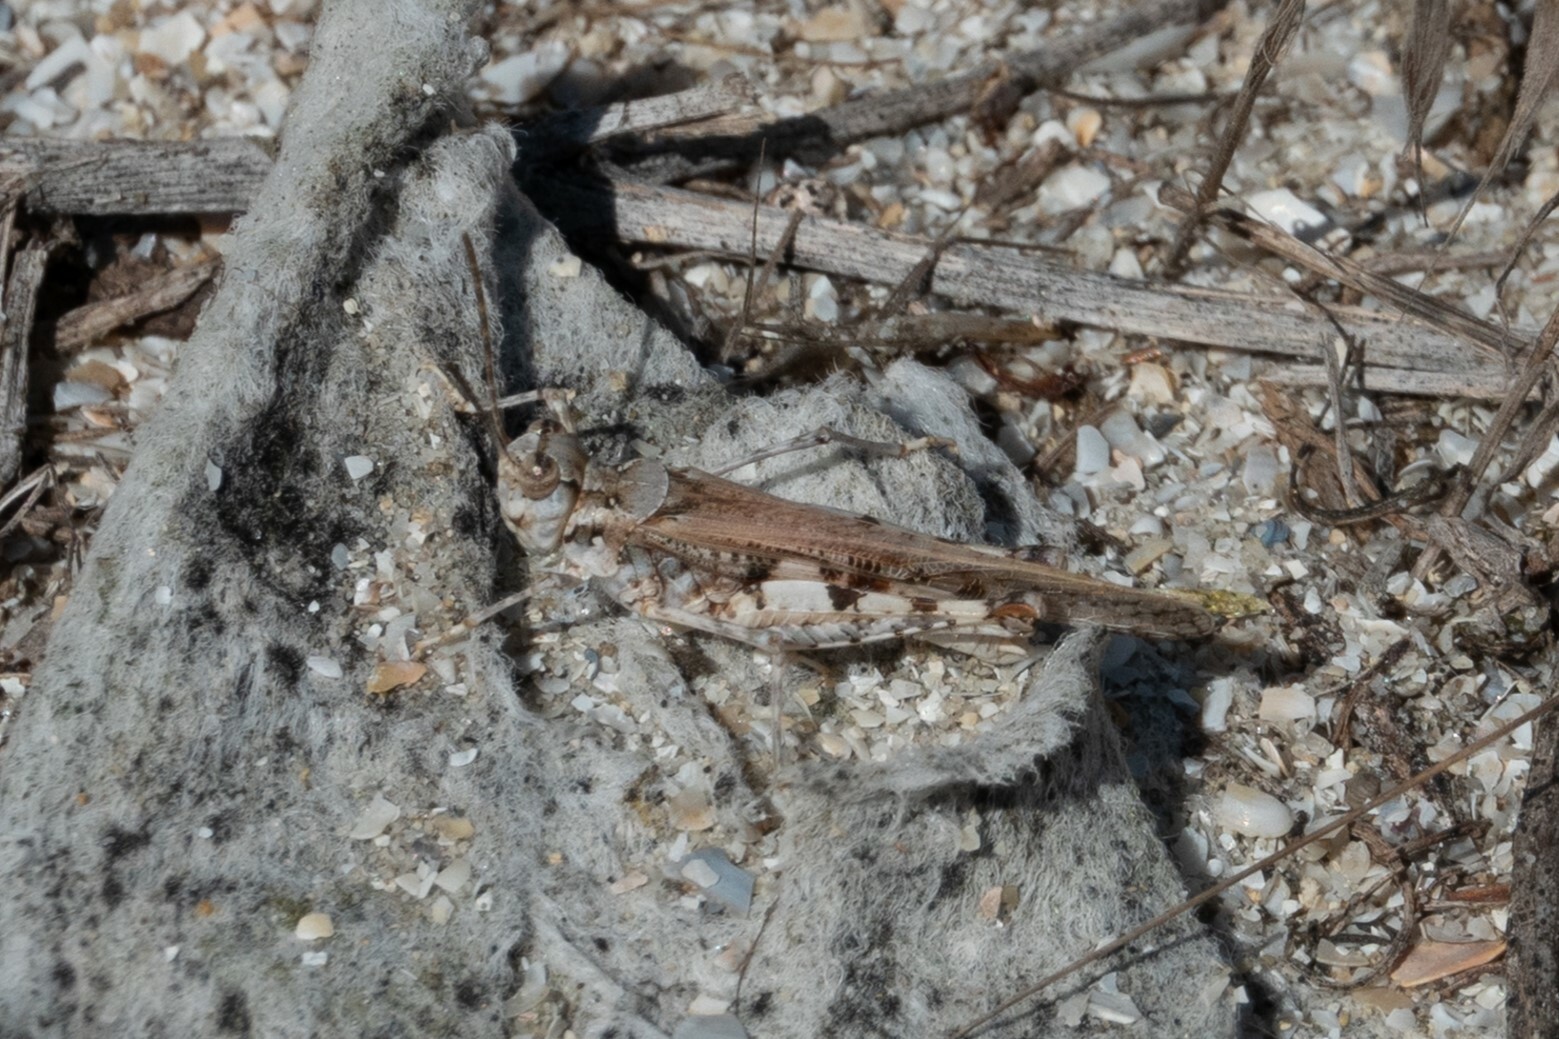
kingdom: Animalia
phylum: Arthropoda
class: Insecta
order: Orthoptera
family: Acrididae
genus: Acrotylus
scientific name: Acrotylus longipes
